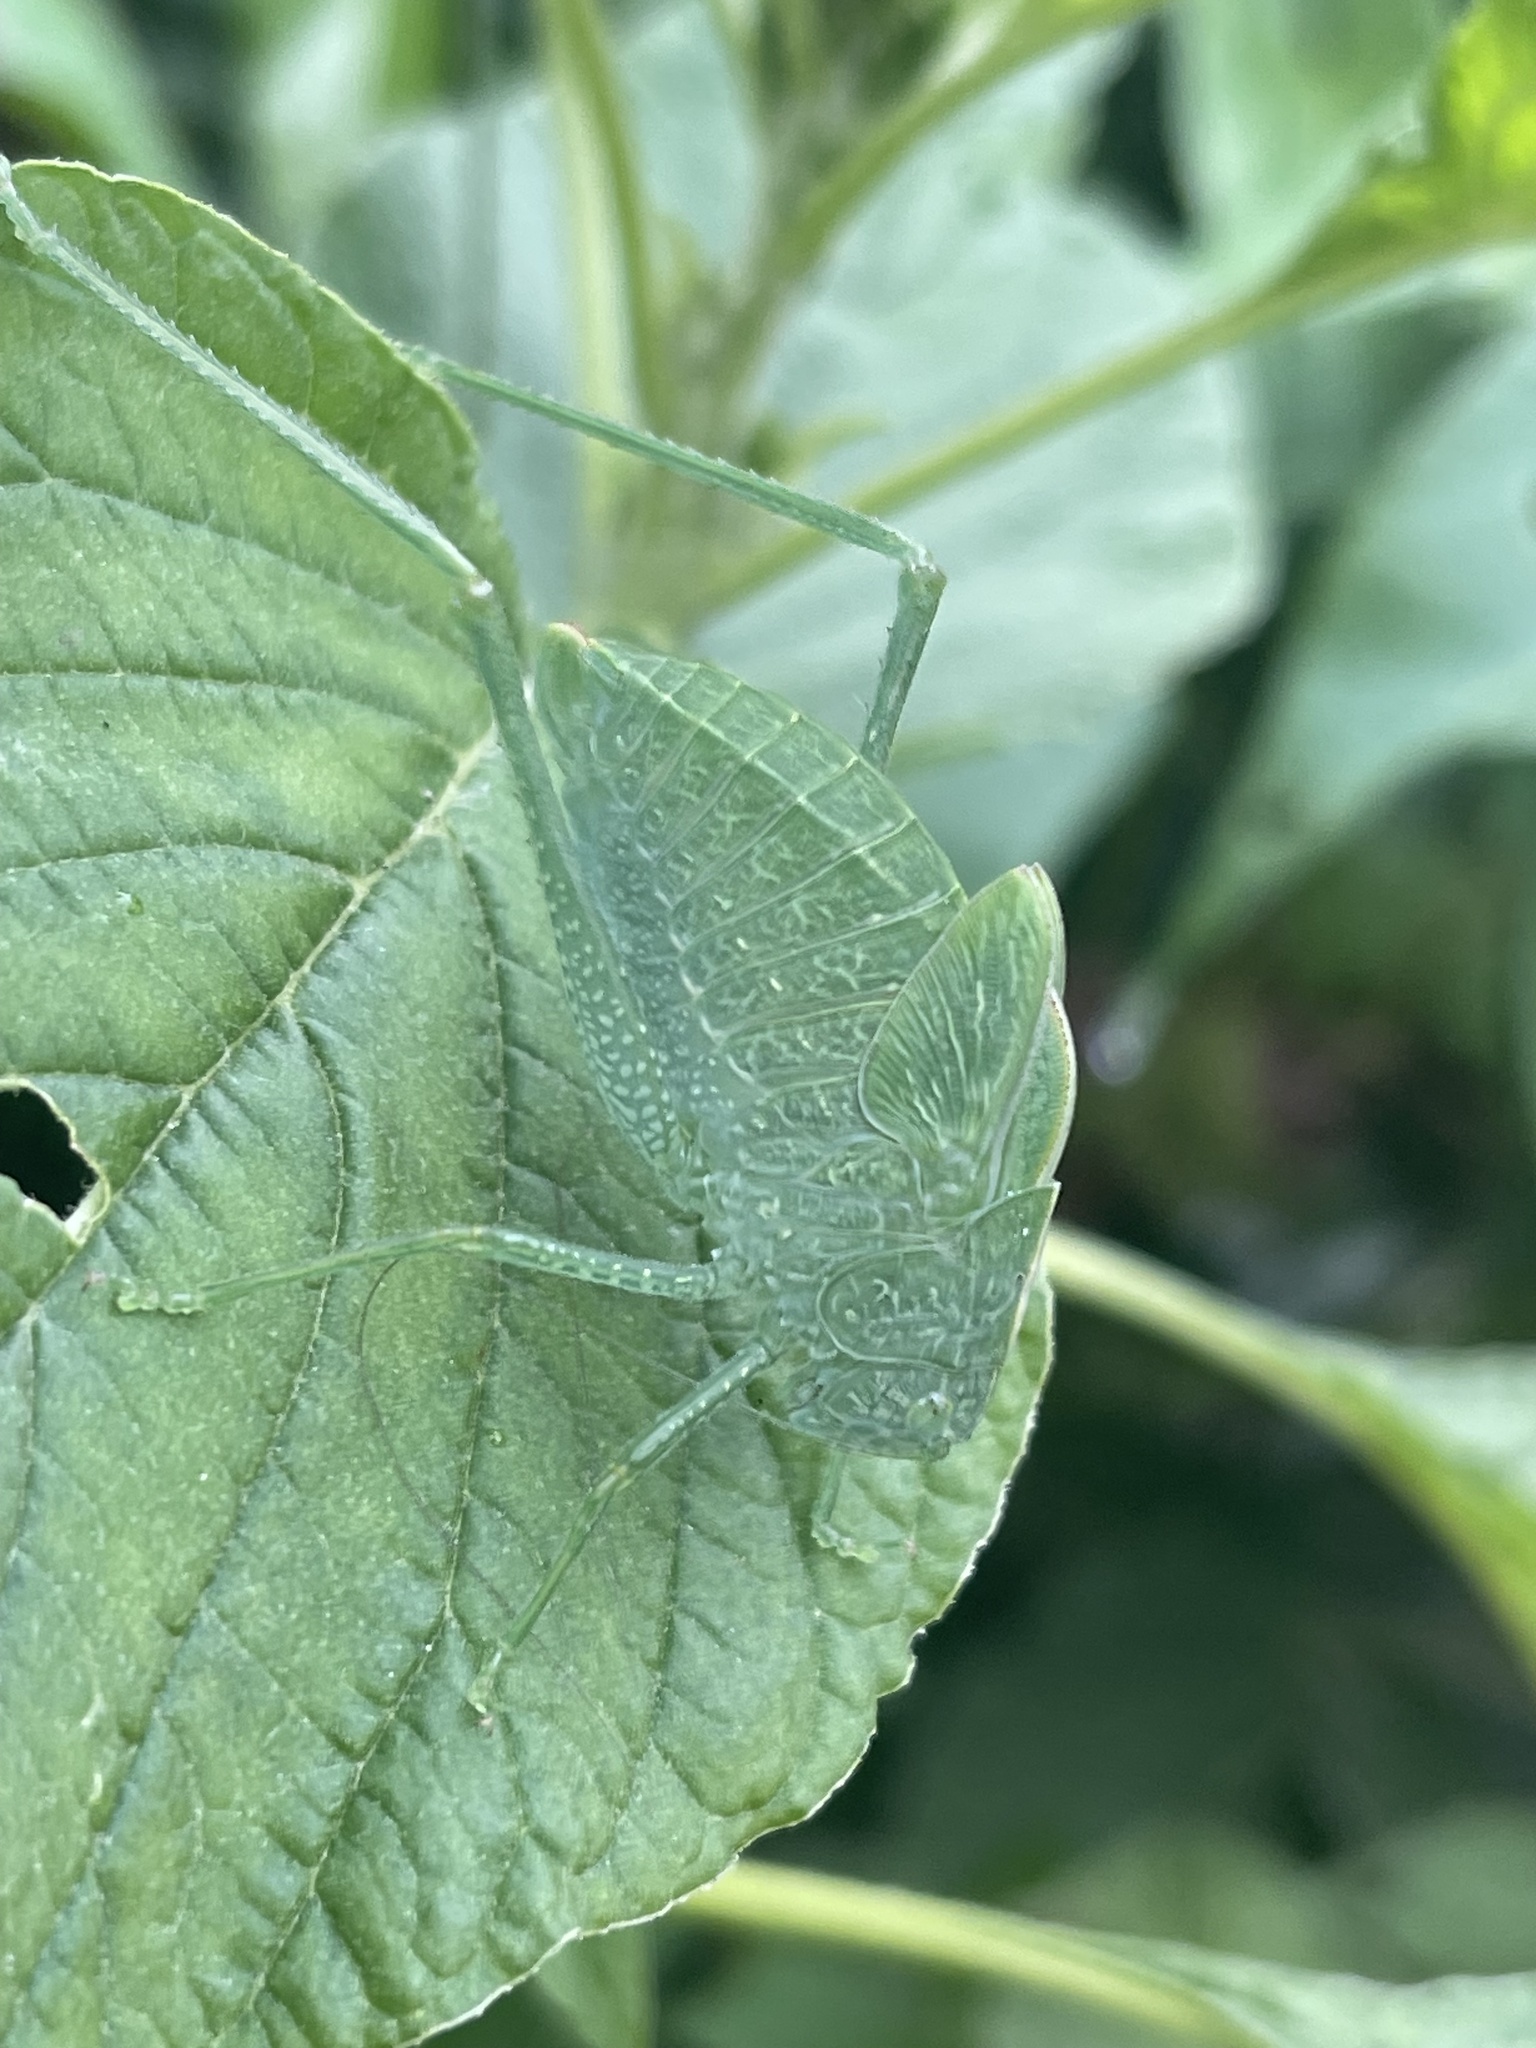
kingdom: Animalia
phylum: Arthropoda
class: Insecta
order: Orthoptera
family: Tettigoniidae
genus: Microcentrum
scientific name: Microcentrum rhombifolium
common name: Broad-winged katydid
